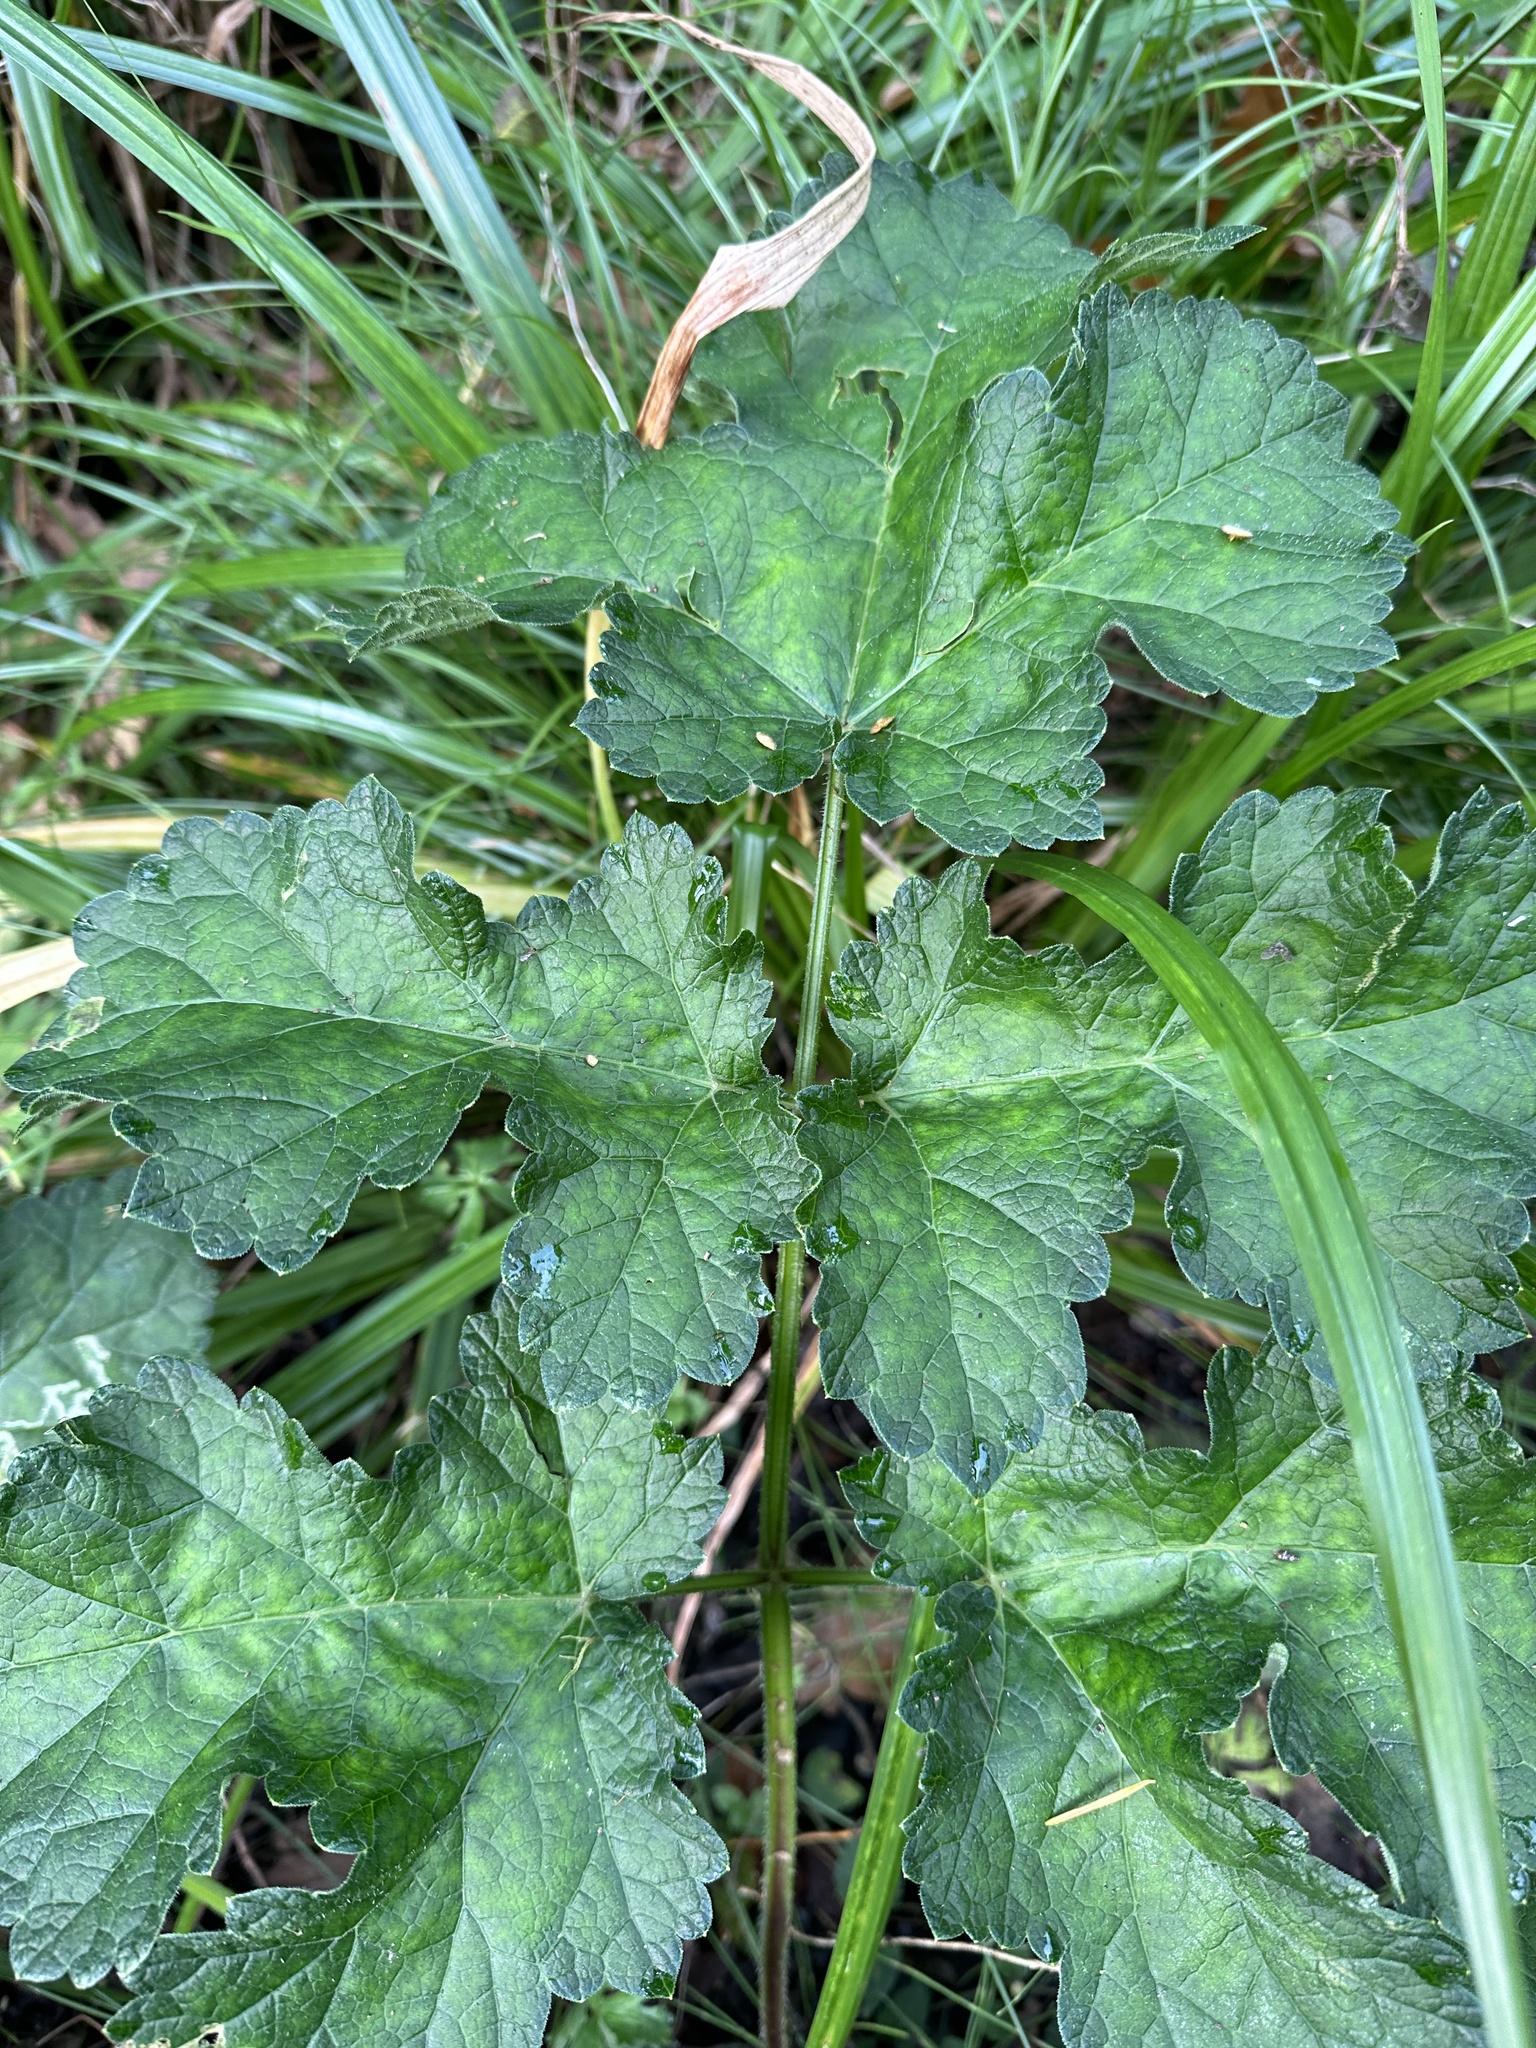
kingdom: Plantae
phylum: Tracheophyta
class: Magnoliopsida
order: Apiales
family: Apiaceae
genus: Heracleum
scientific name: Heracleum sphondylium
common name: Hogweed
